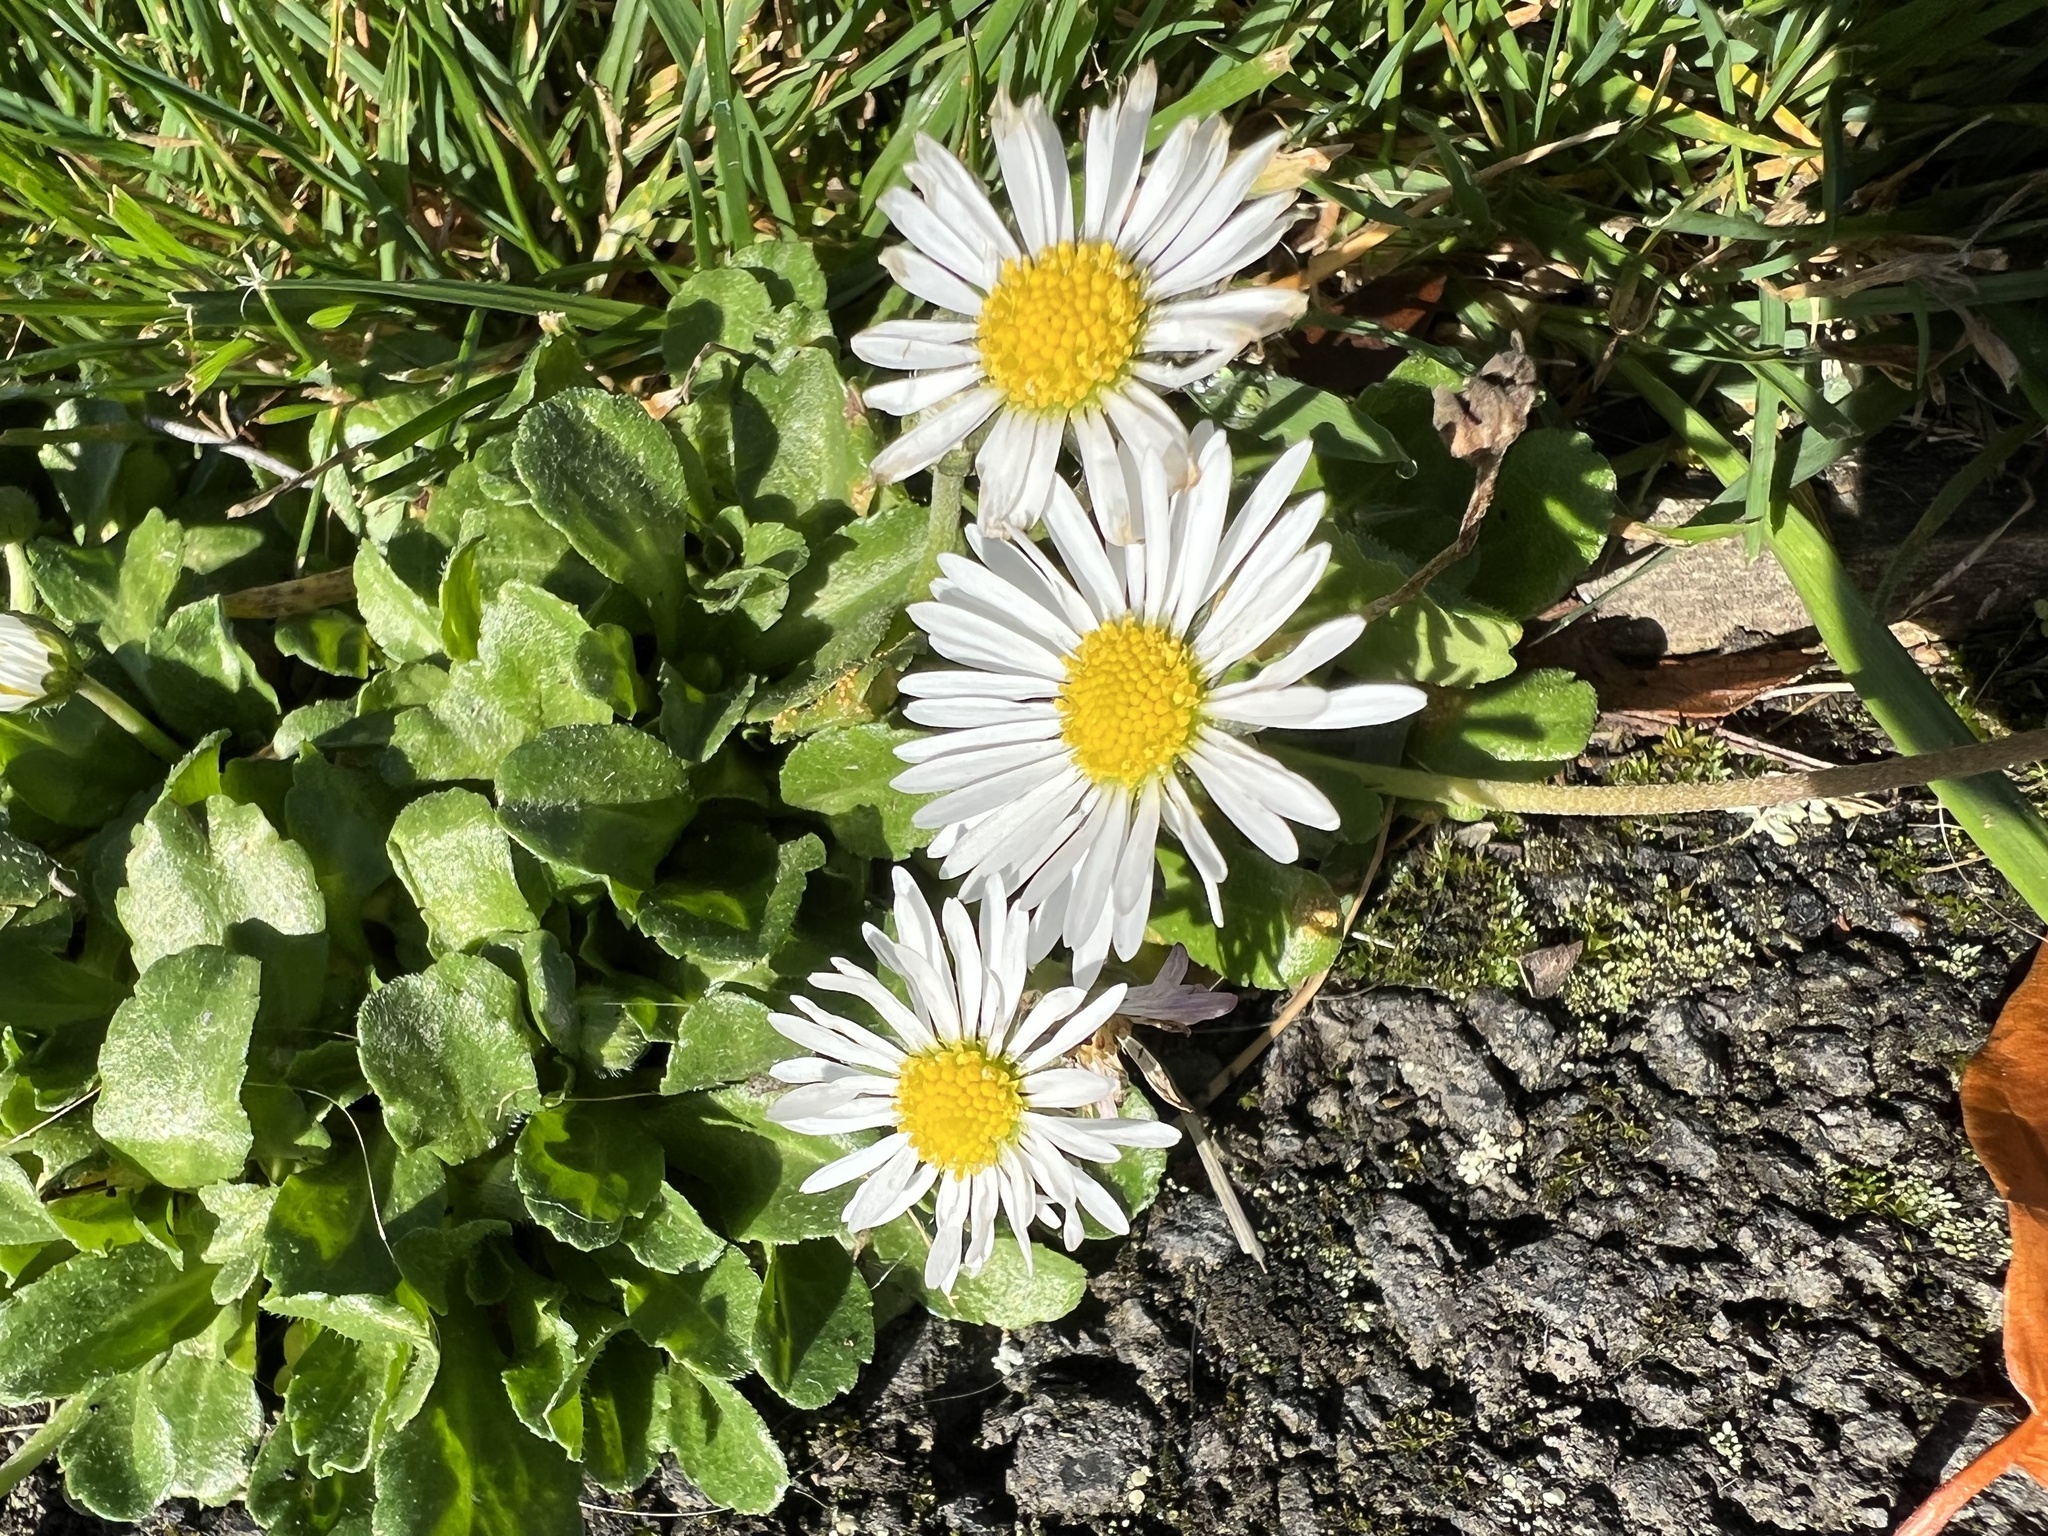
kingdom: Plantae
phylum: Tracheophyta
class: Magnoliopsida
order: Asterales
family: Asteraceae
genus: Bellis
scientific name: Bellis perennis
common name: Lawndaisy
